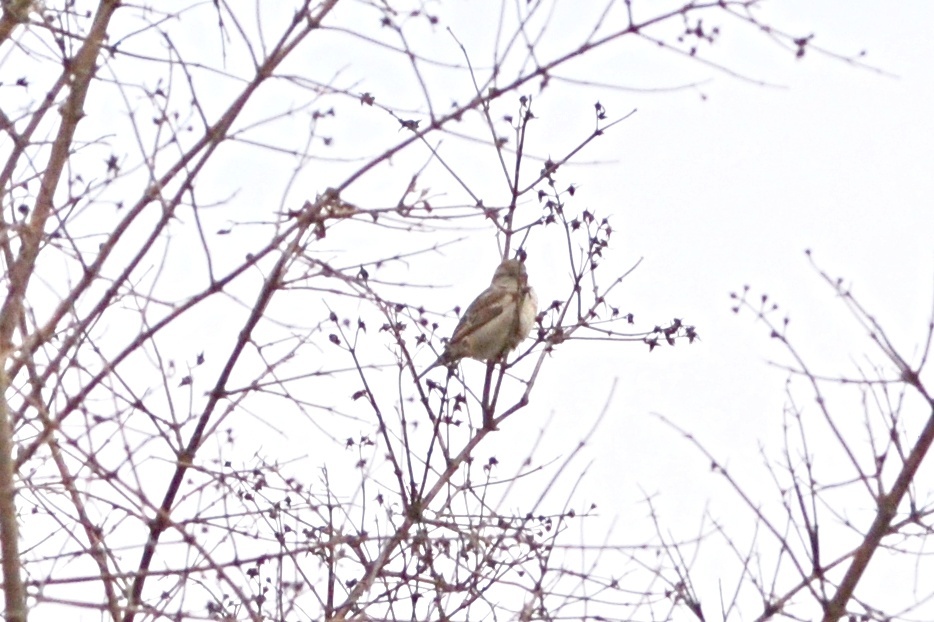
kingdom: Animalia
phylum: Chordata
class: Aves
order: Passeriformes
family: Passeridae
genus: Passer
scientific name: Passer domesticus
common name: House sparrow
